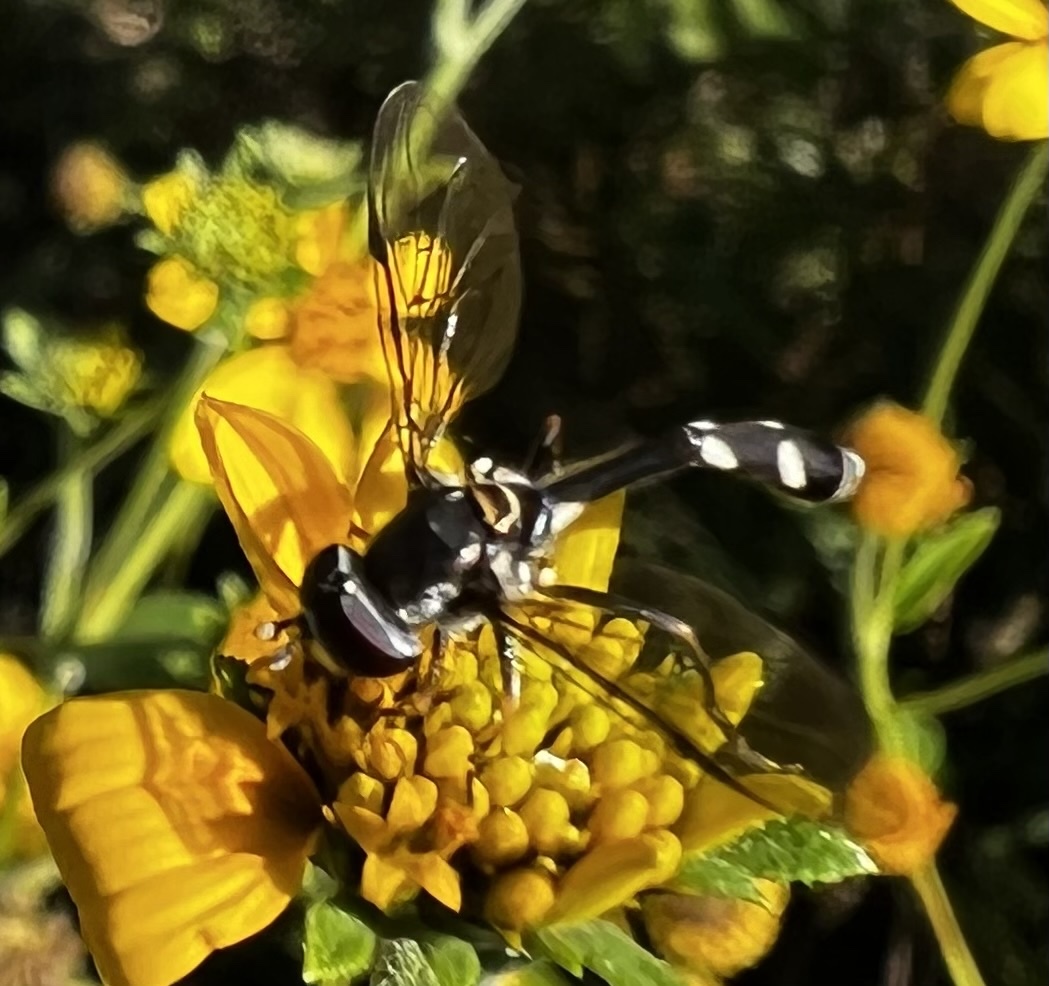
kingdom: Animalia
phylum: Arthropoda
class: Insecta
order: Diptera
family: Syrphidae
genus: Dioprosopa
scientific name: Dioprosopa clavatus
